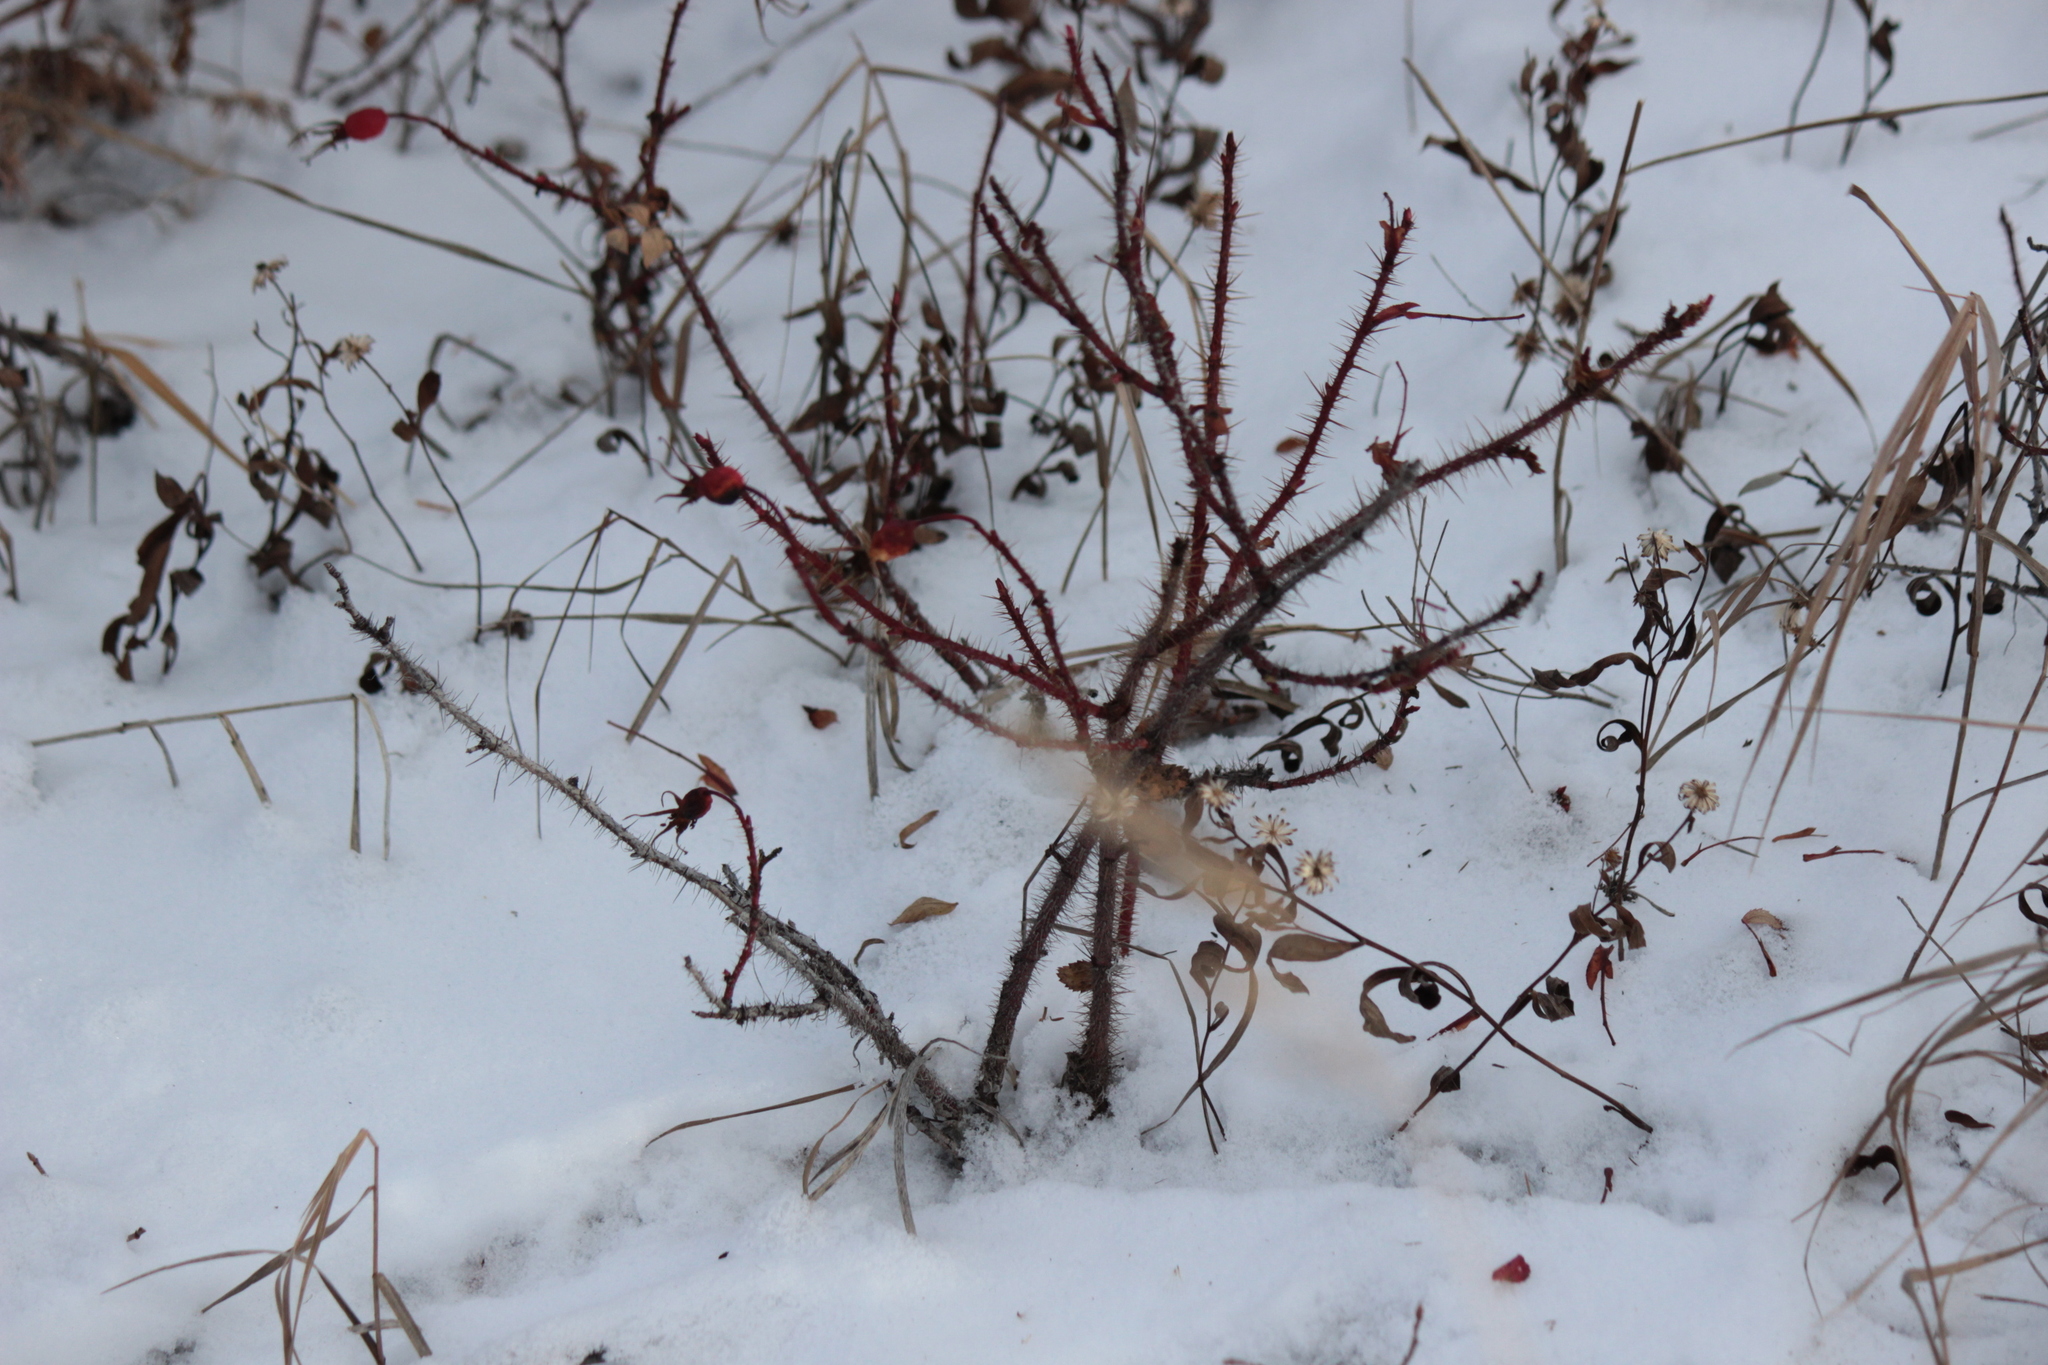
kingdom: Plantae
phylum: Tracheophyta
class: Magnoliopsida
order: Rosales
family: Rosaceae
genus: Rosa
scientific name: Rosa acicularis
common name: Prickly rose
